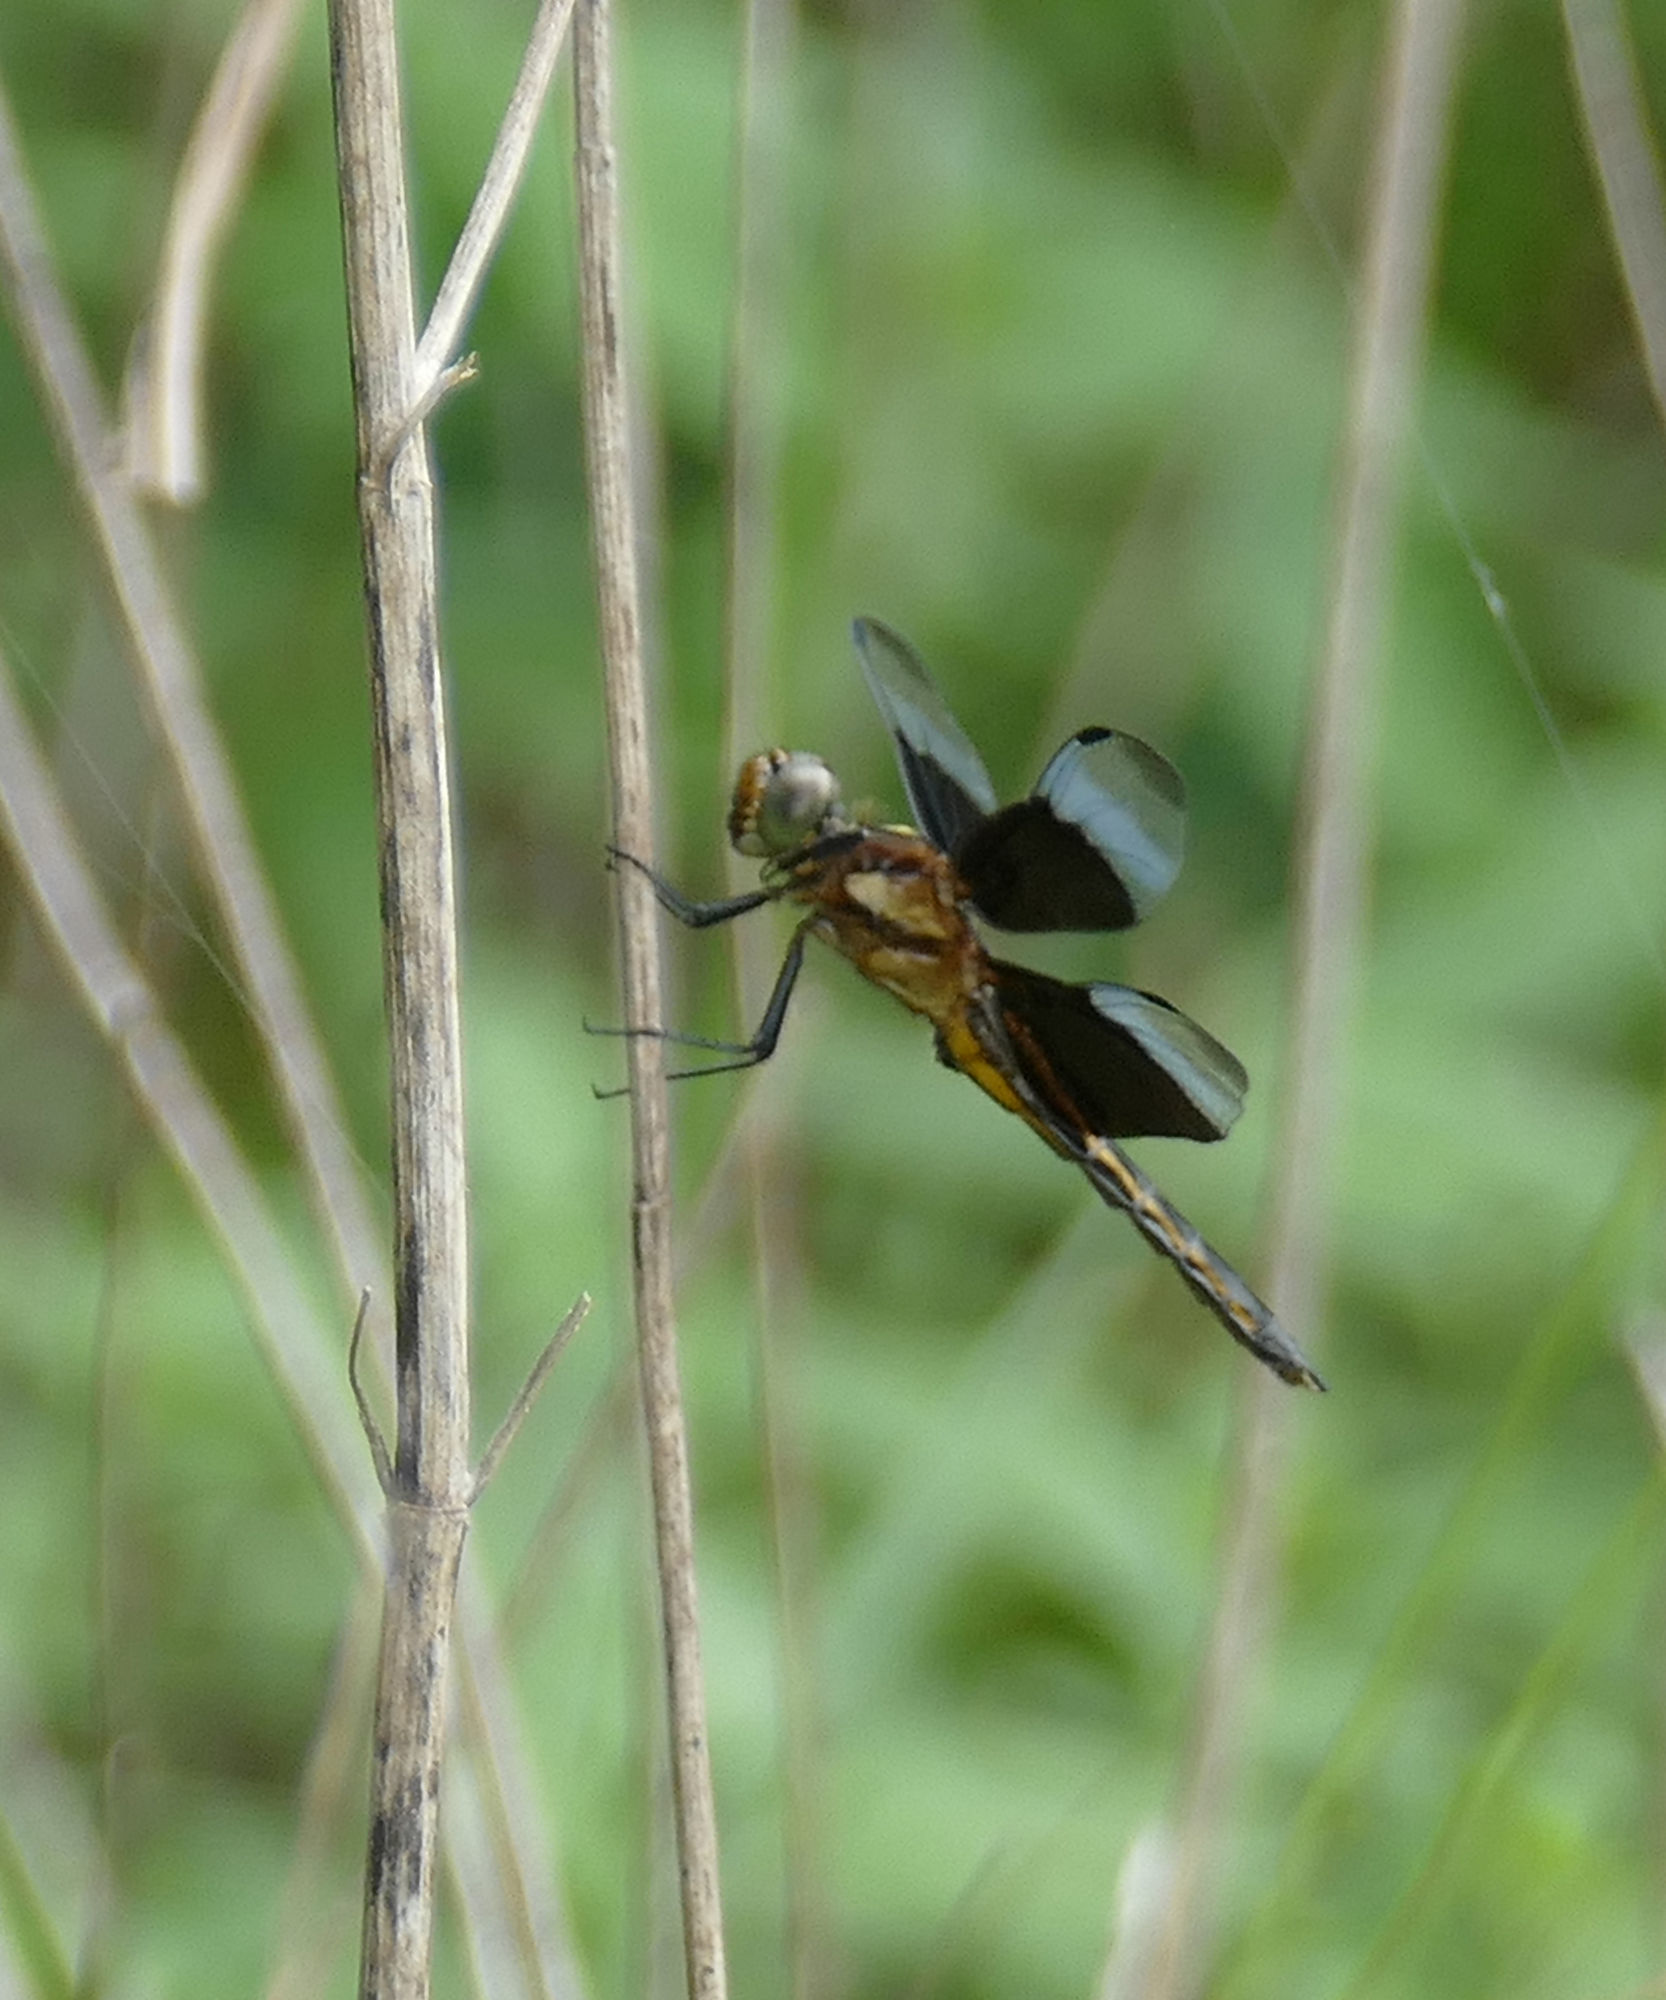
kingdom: Animalia
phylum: Arthropoda
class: Insecta
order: Odonata
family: Libellulidae
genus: Libellula
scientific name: Libellula luctuosa
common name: Widow skimmer
